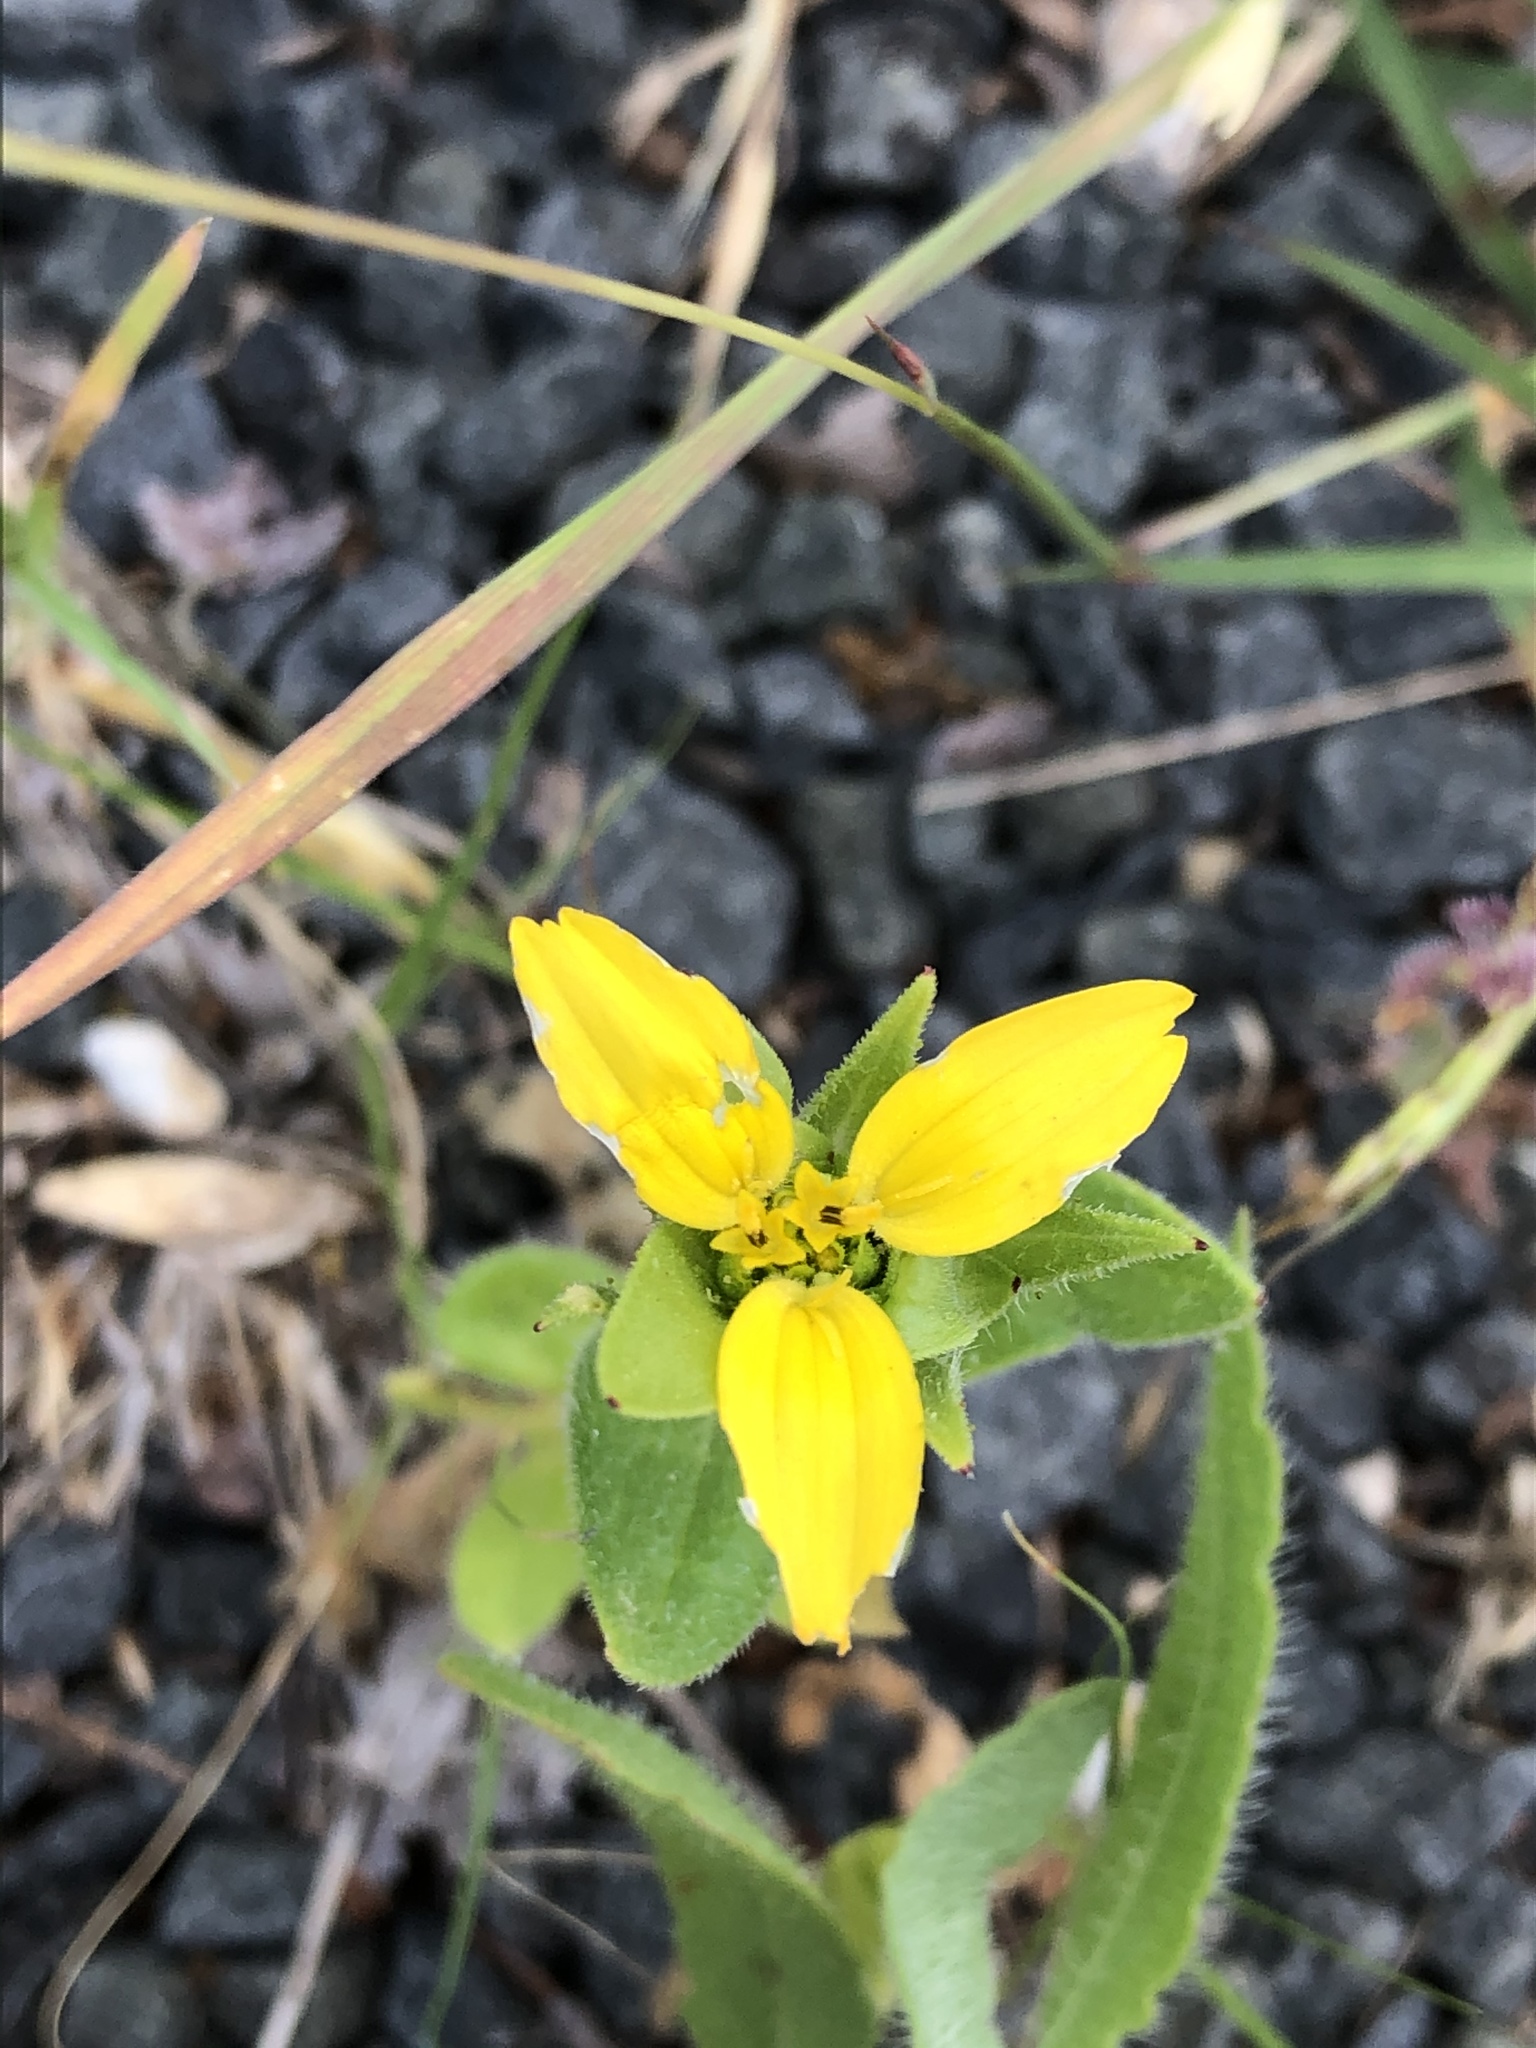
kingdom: Plantae
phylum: Tracheophyta
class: Magnoliopsida
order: Asterales
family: Asteraceae
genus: Lindheimera
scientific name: Lindheimera texana
